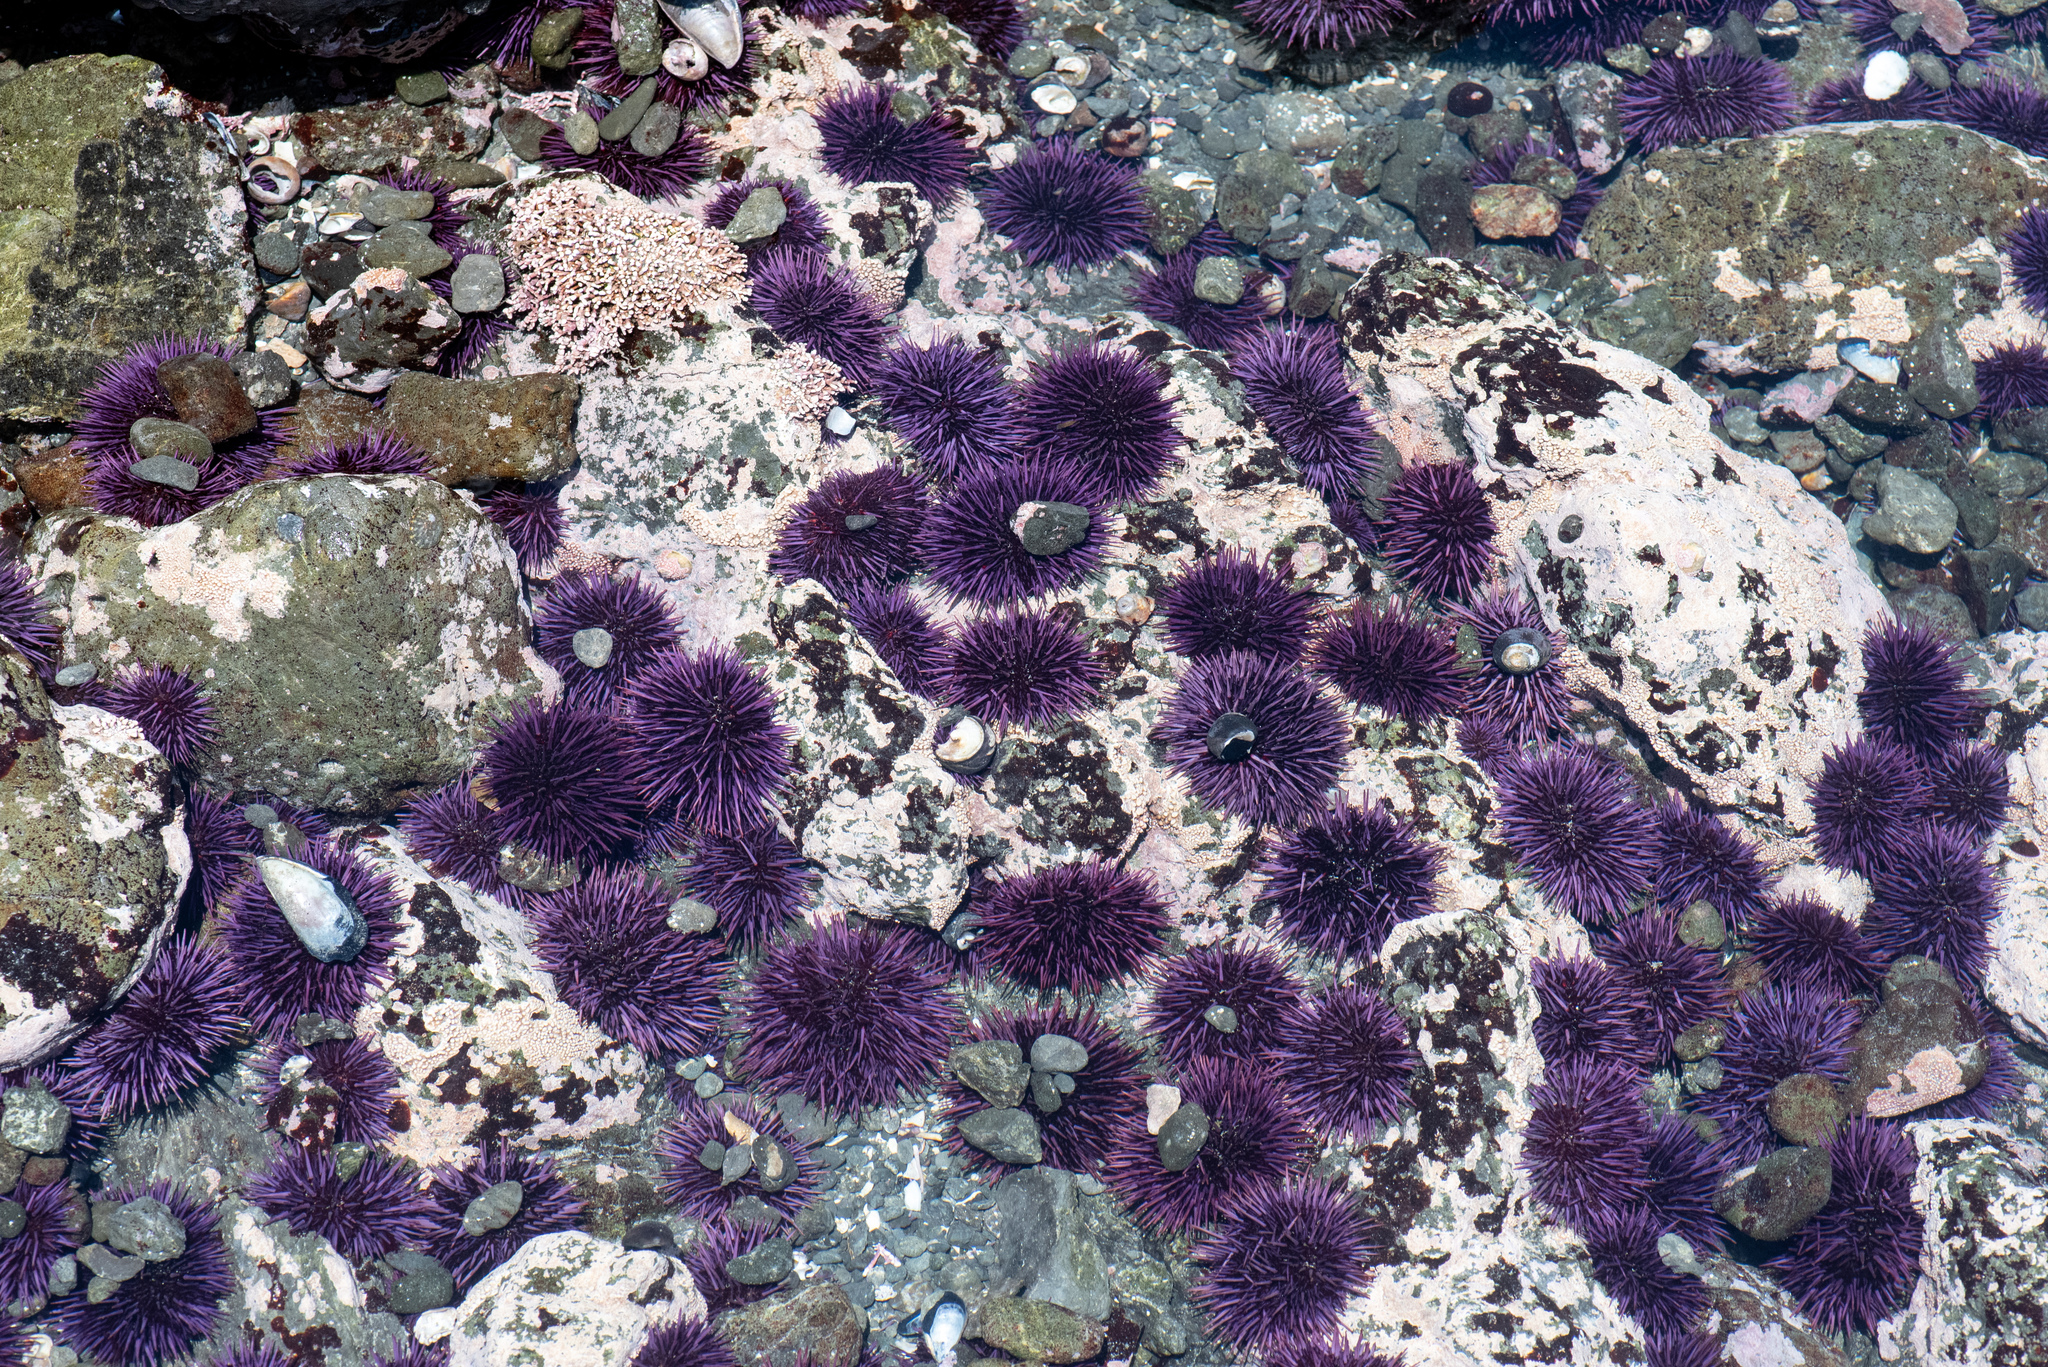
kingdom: Animalia
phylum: Echinodermata
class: Echinoidea
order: Camarodonta
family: Strongylocentrotidae
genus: Strongylocentrotus
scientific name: Strongylocentrotus purpuratus
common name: Purple sea urchin
